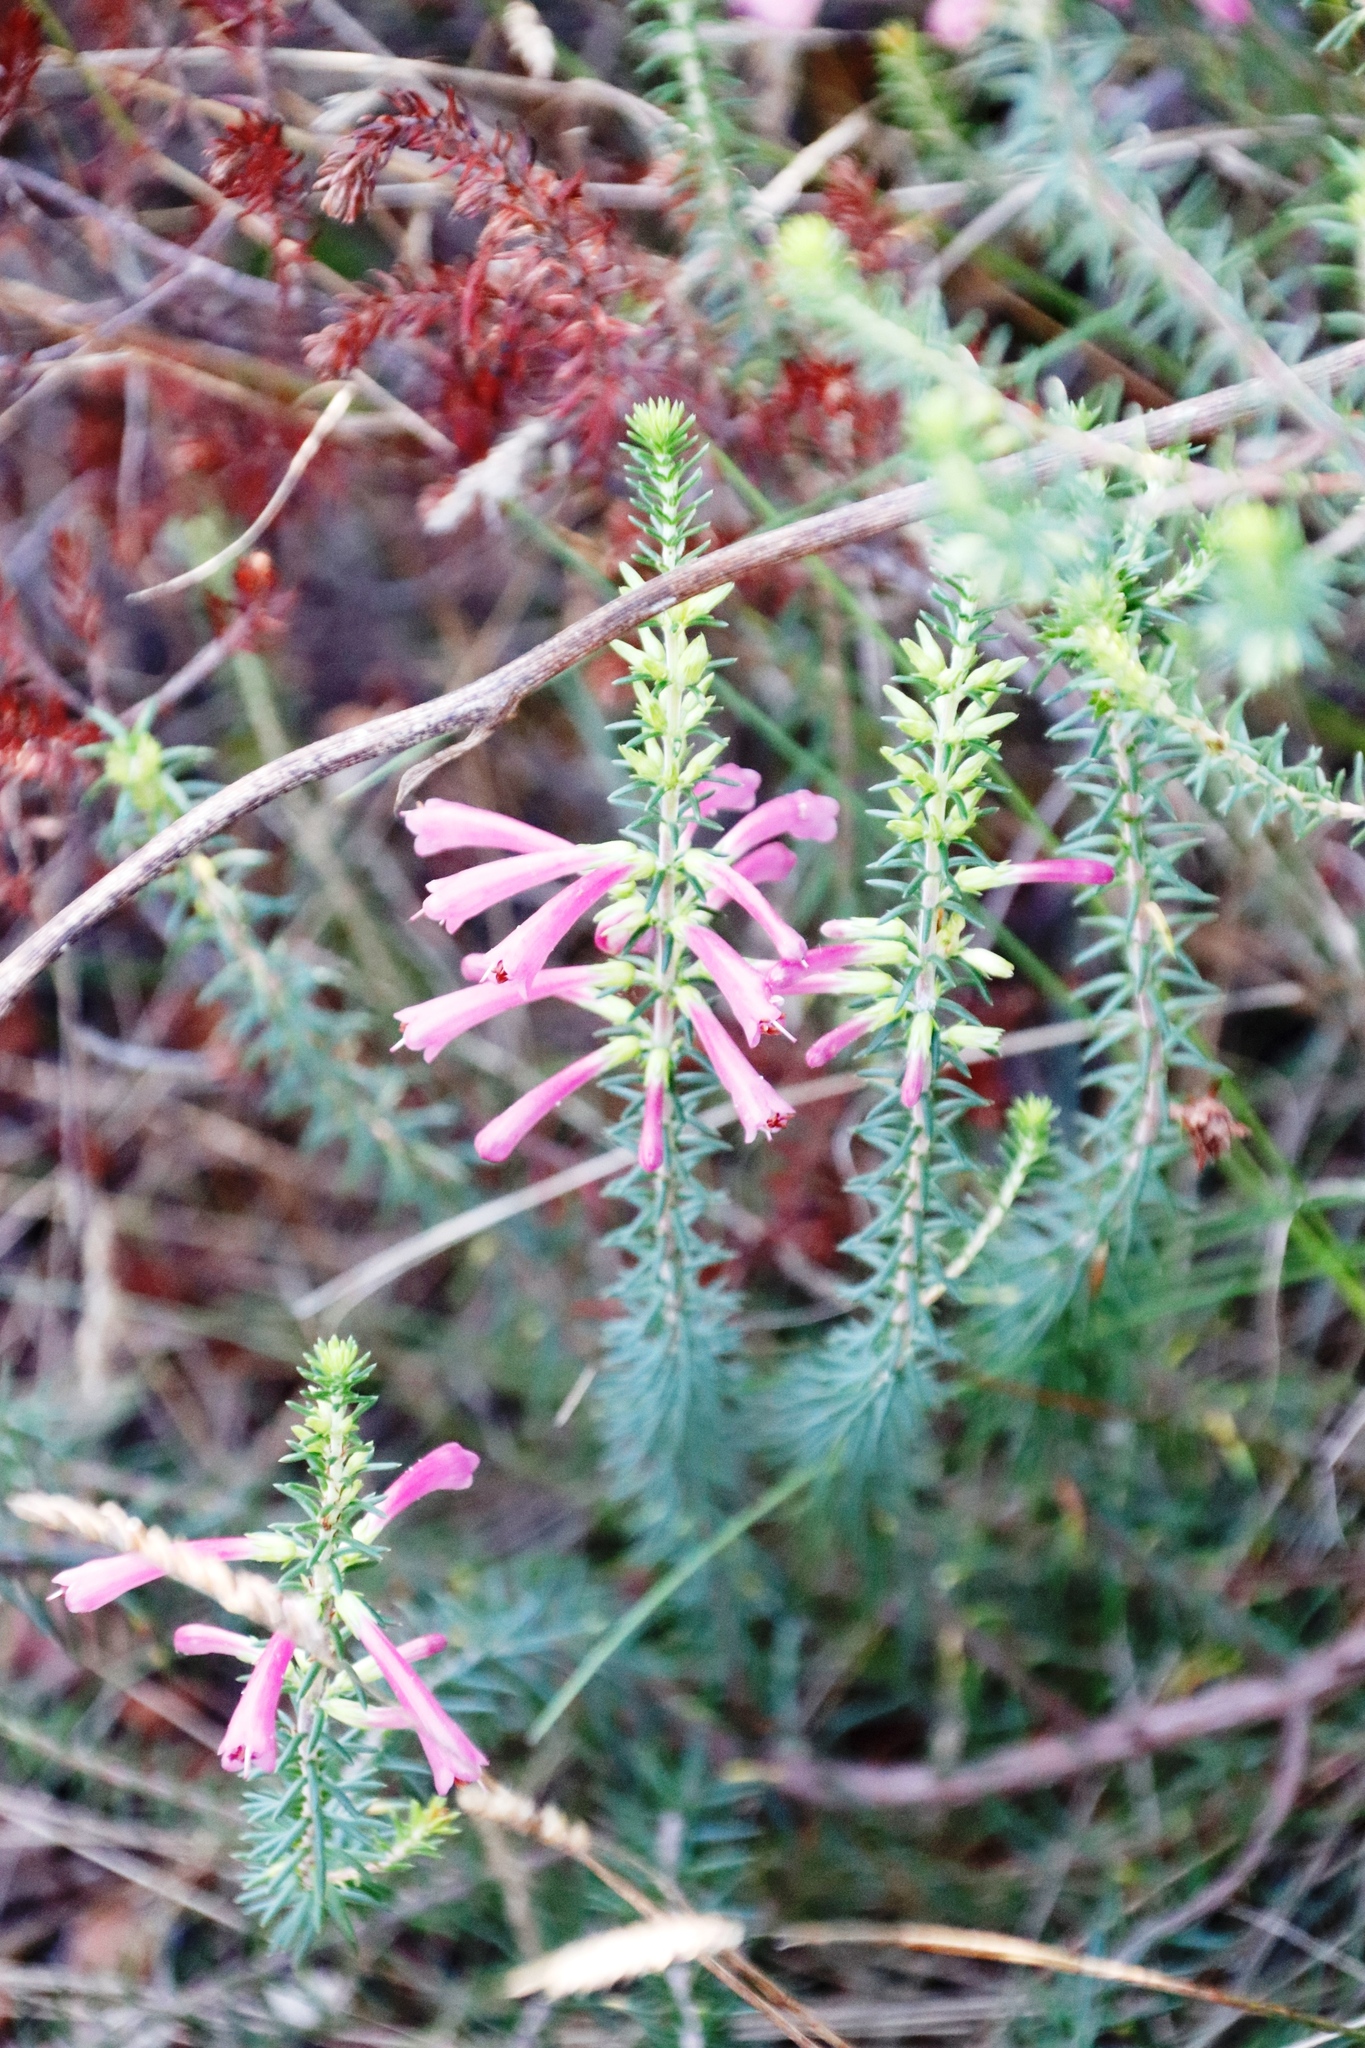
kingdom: Plantae
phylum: Tracheophyta
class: Magnoliopsida
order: Ericales
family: Ericaceae
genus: Erica
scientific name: Erica abietina
